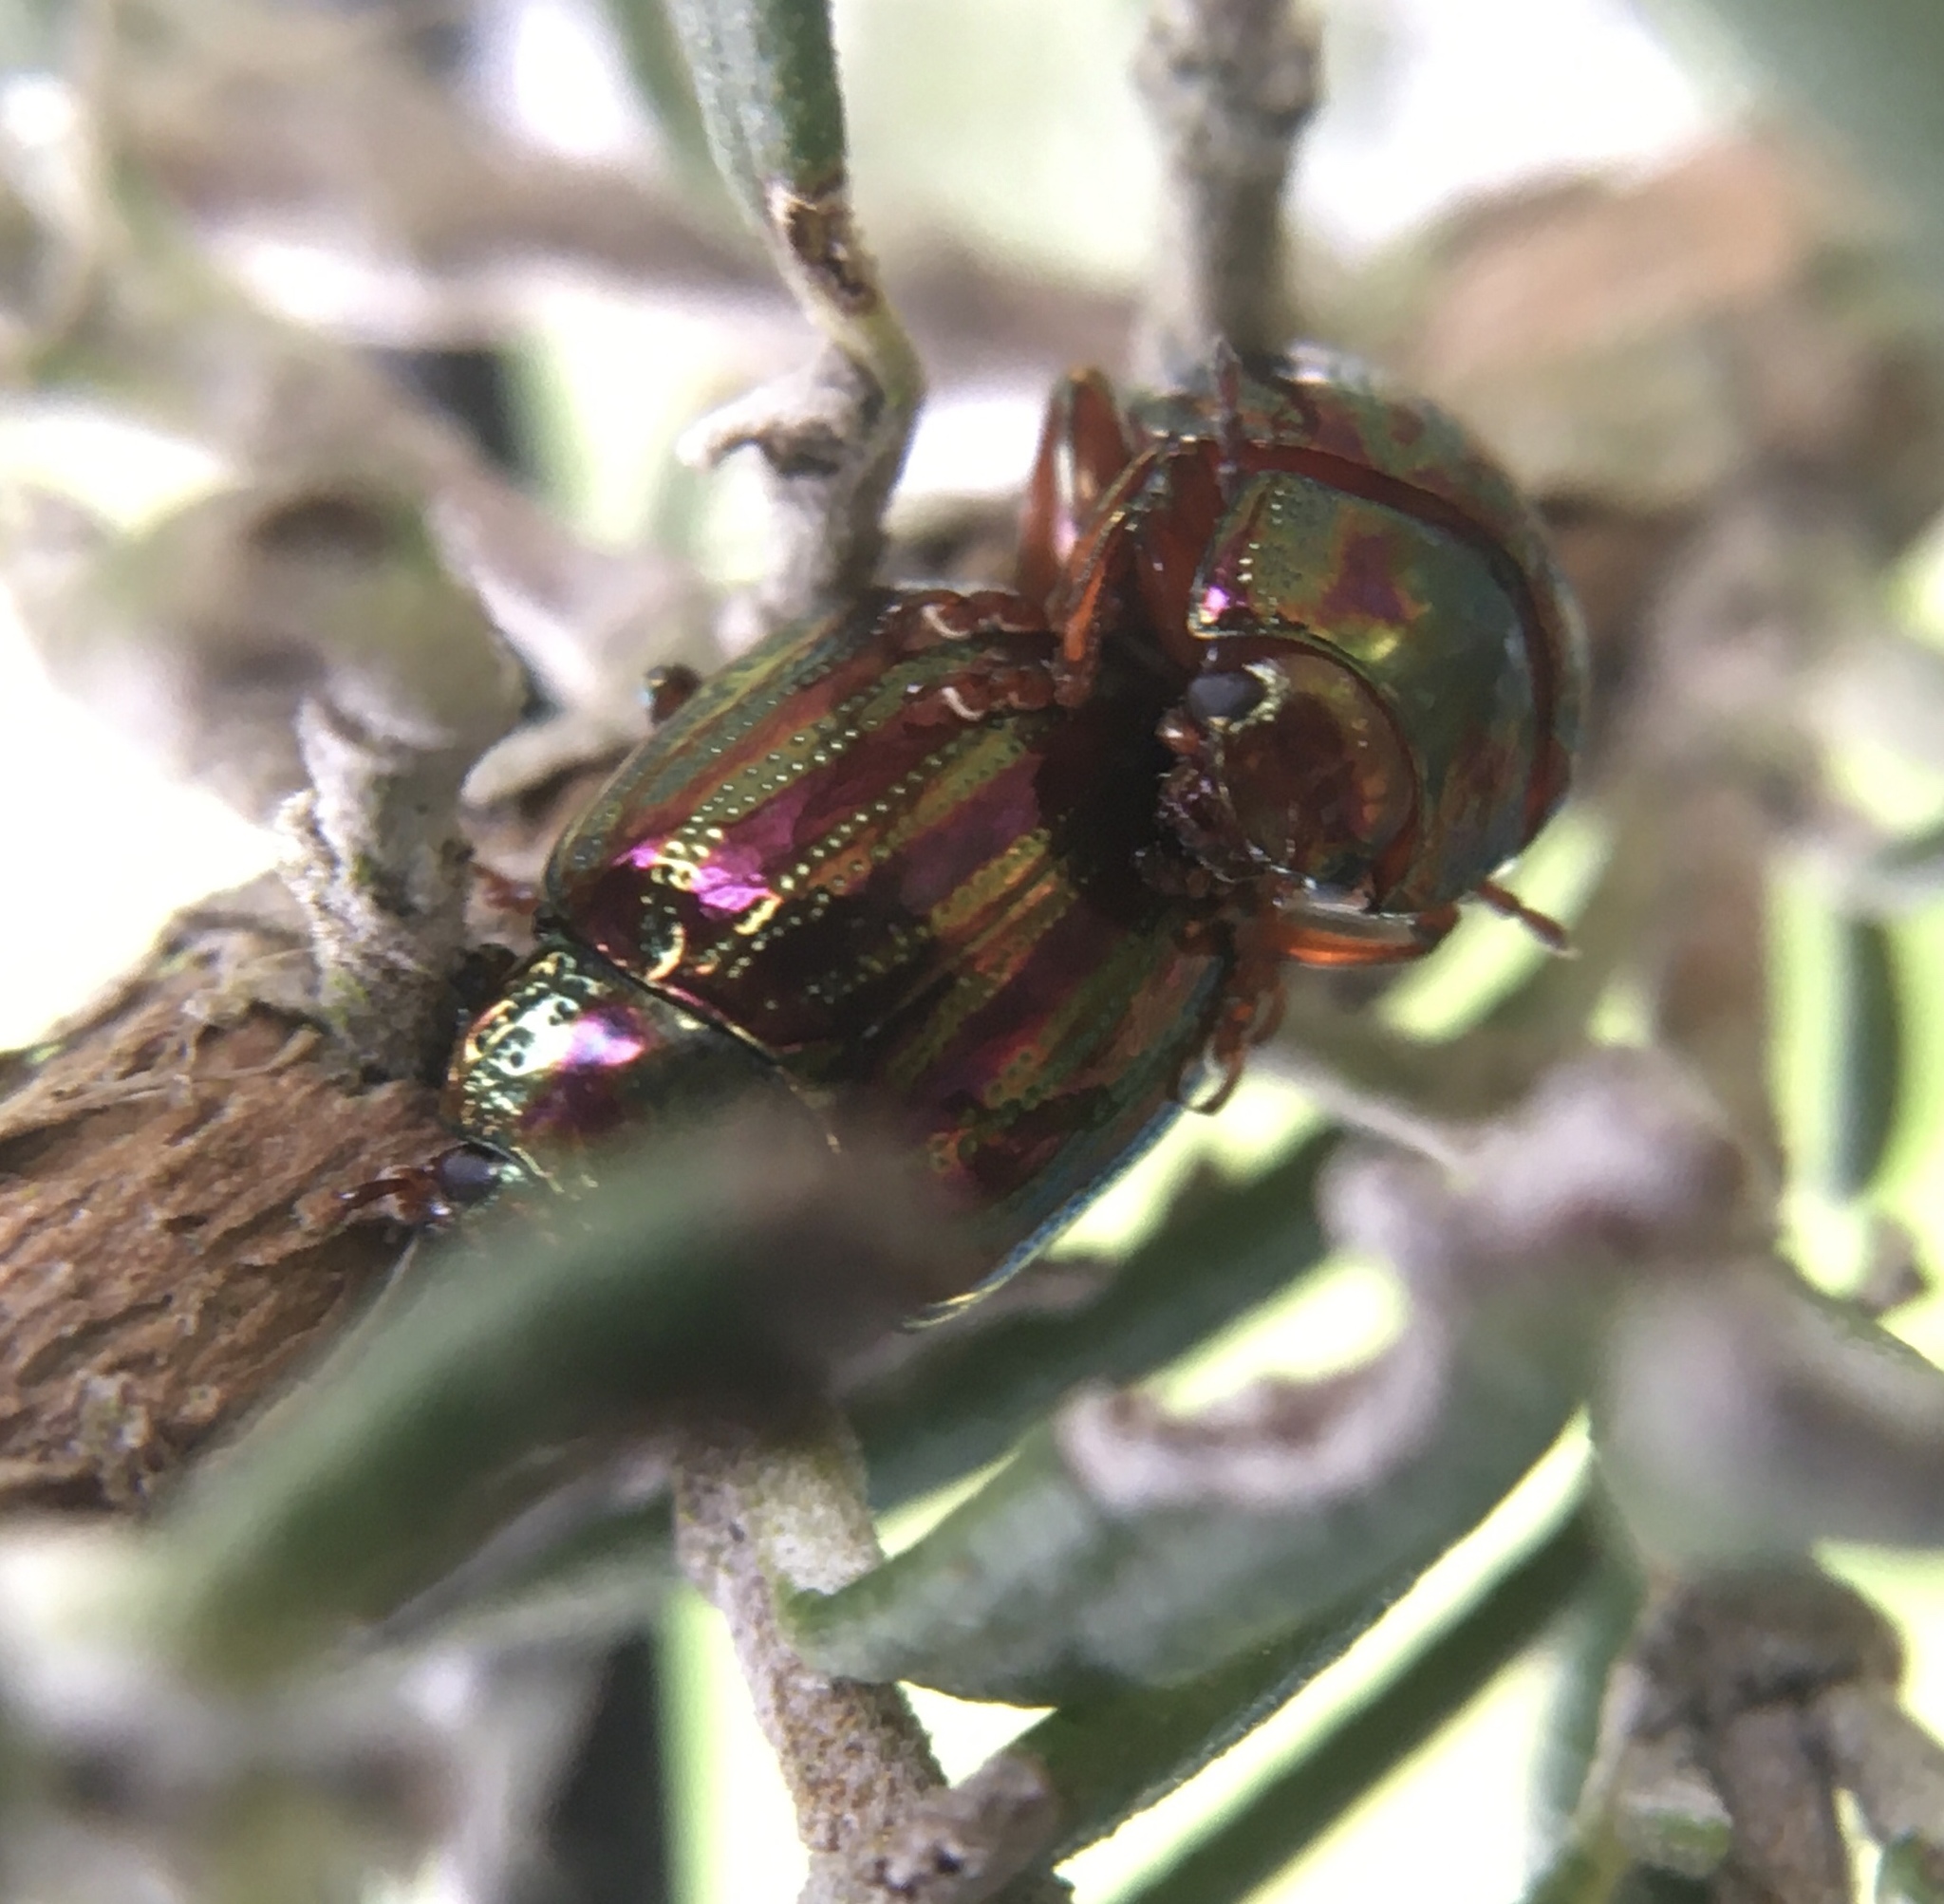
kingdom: Animalia
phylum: Arthropoda
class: Insecta
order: Coleoptera
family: Chrysomelidae
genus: Chrysolina
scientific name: Chrysolina americana
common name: Rosemary beetle
